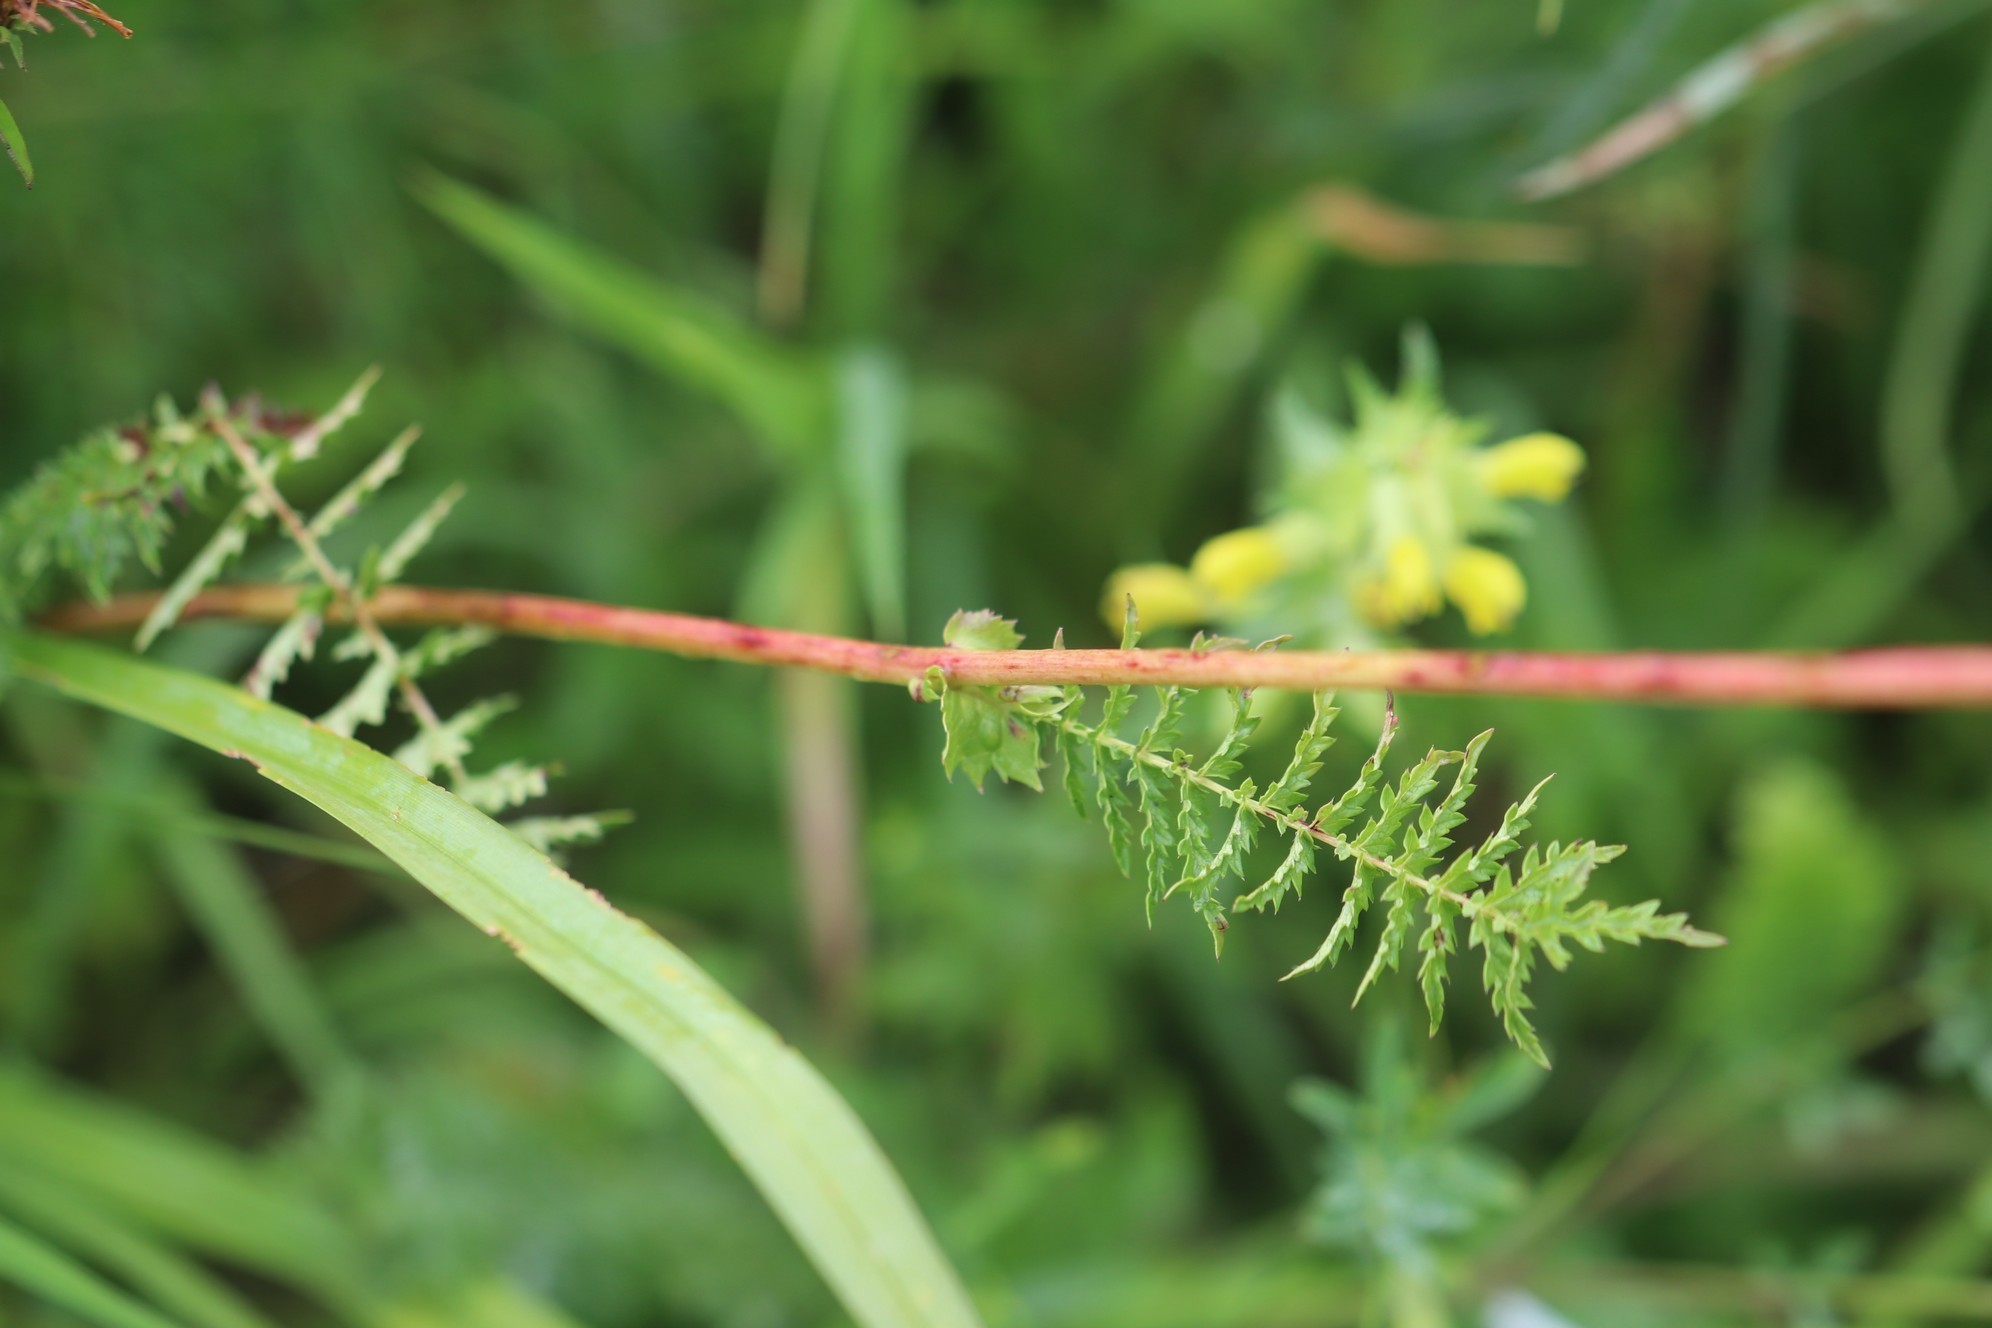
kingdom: Plantae
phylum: Tracheophyta
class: Magnoliopsida
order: Rosales
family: Rosaceae
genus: Filipendula
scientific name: Filipendula vulgaris
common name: Dropwort
